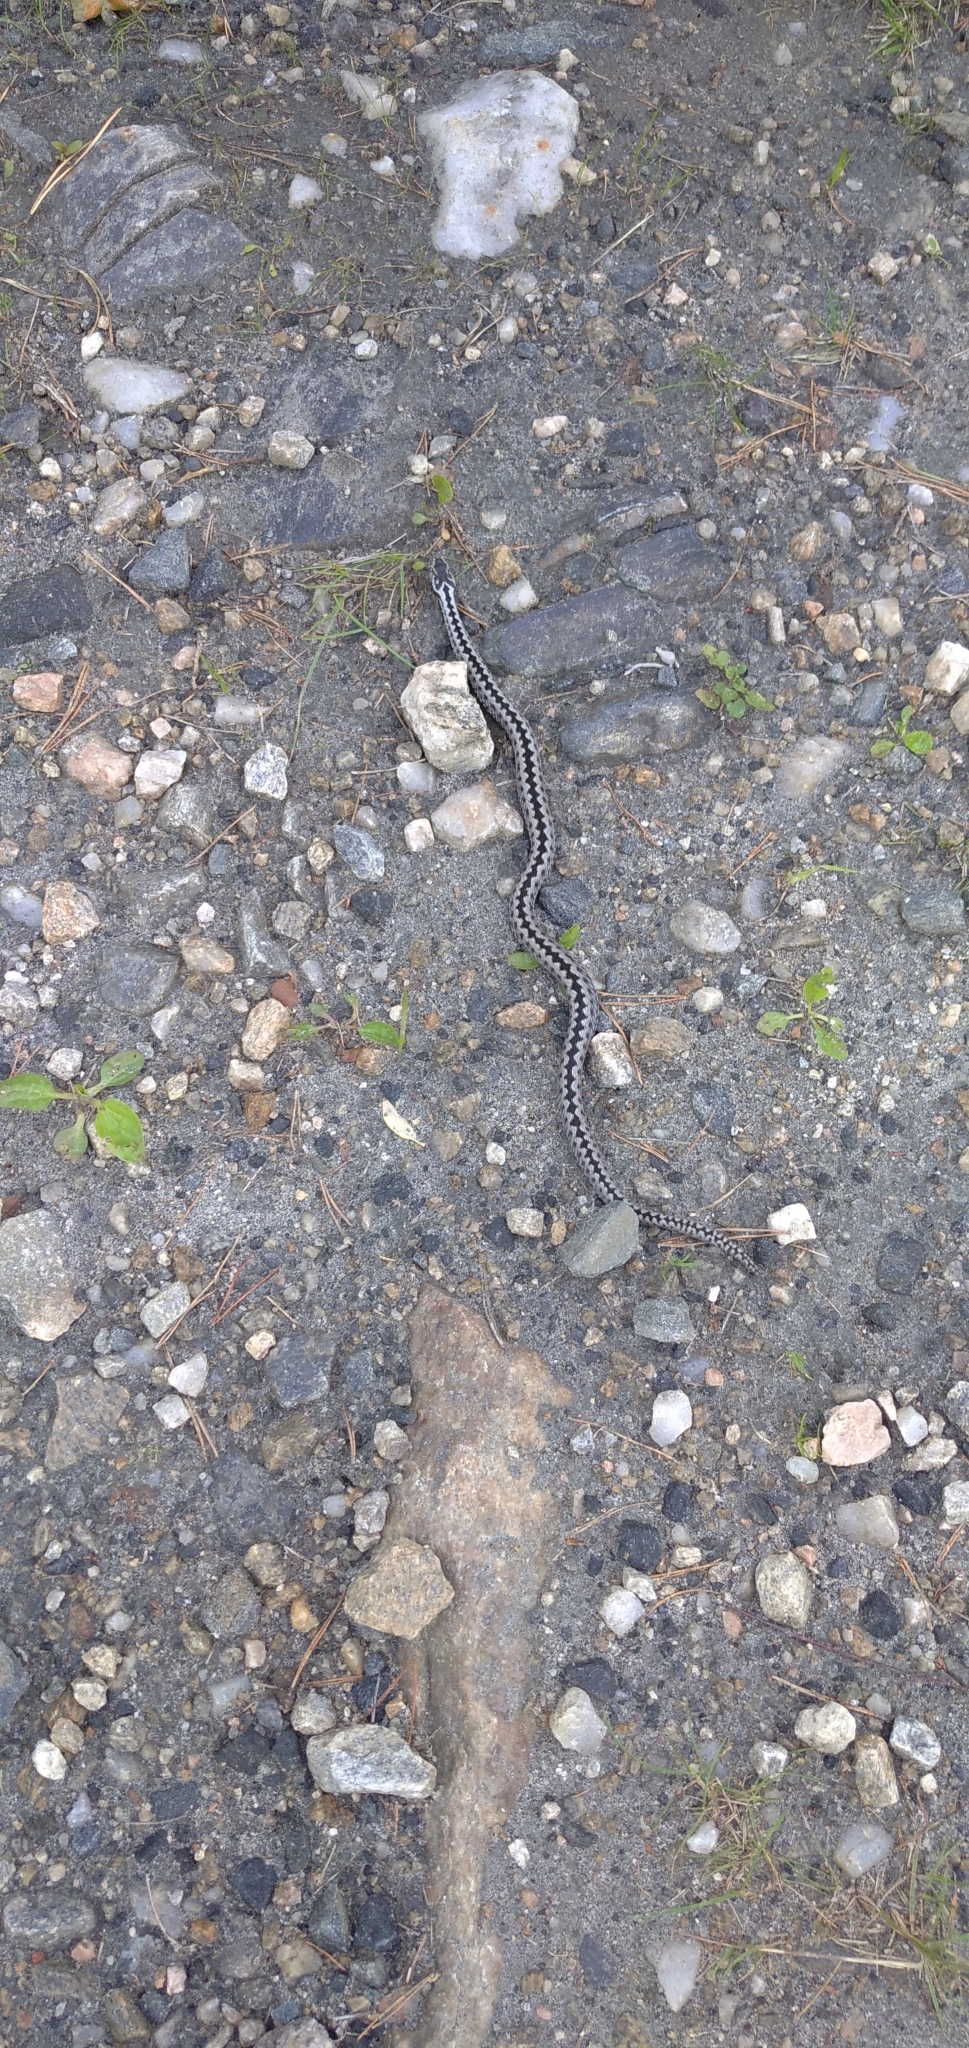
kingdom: Animalia
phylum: Chordata
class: Squamata
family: Viperidae
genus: Vipera
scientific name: Vipera berus
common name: Adder
